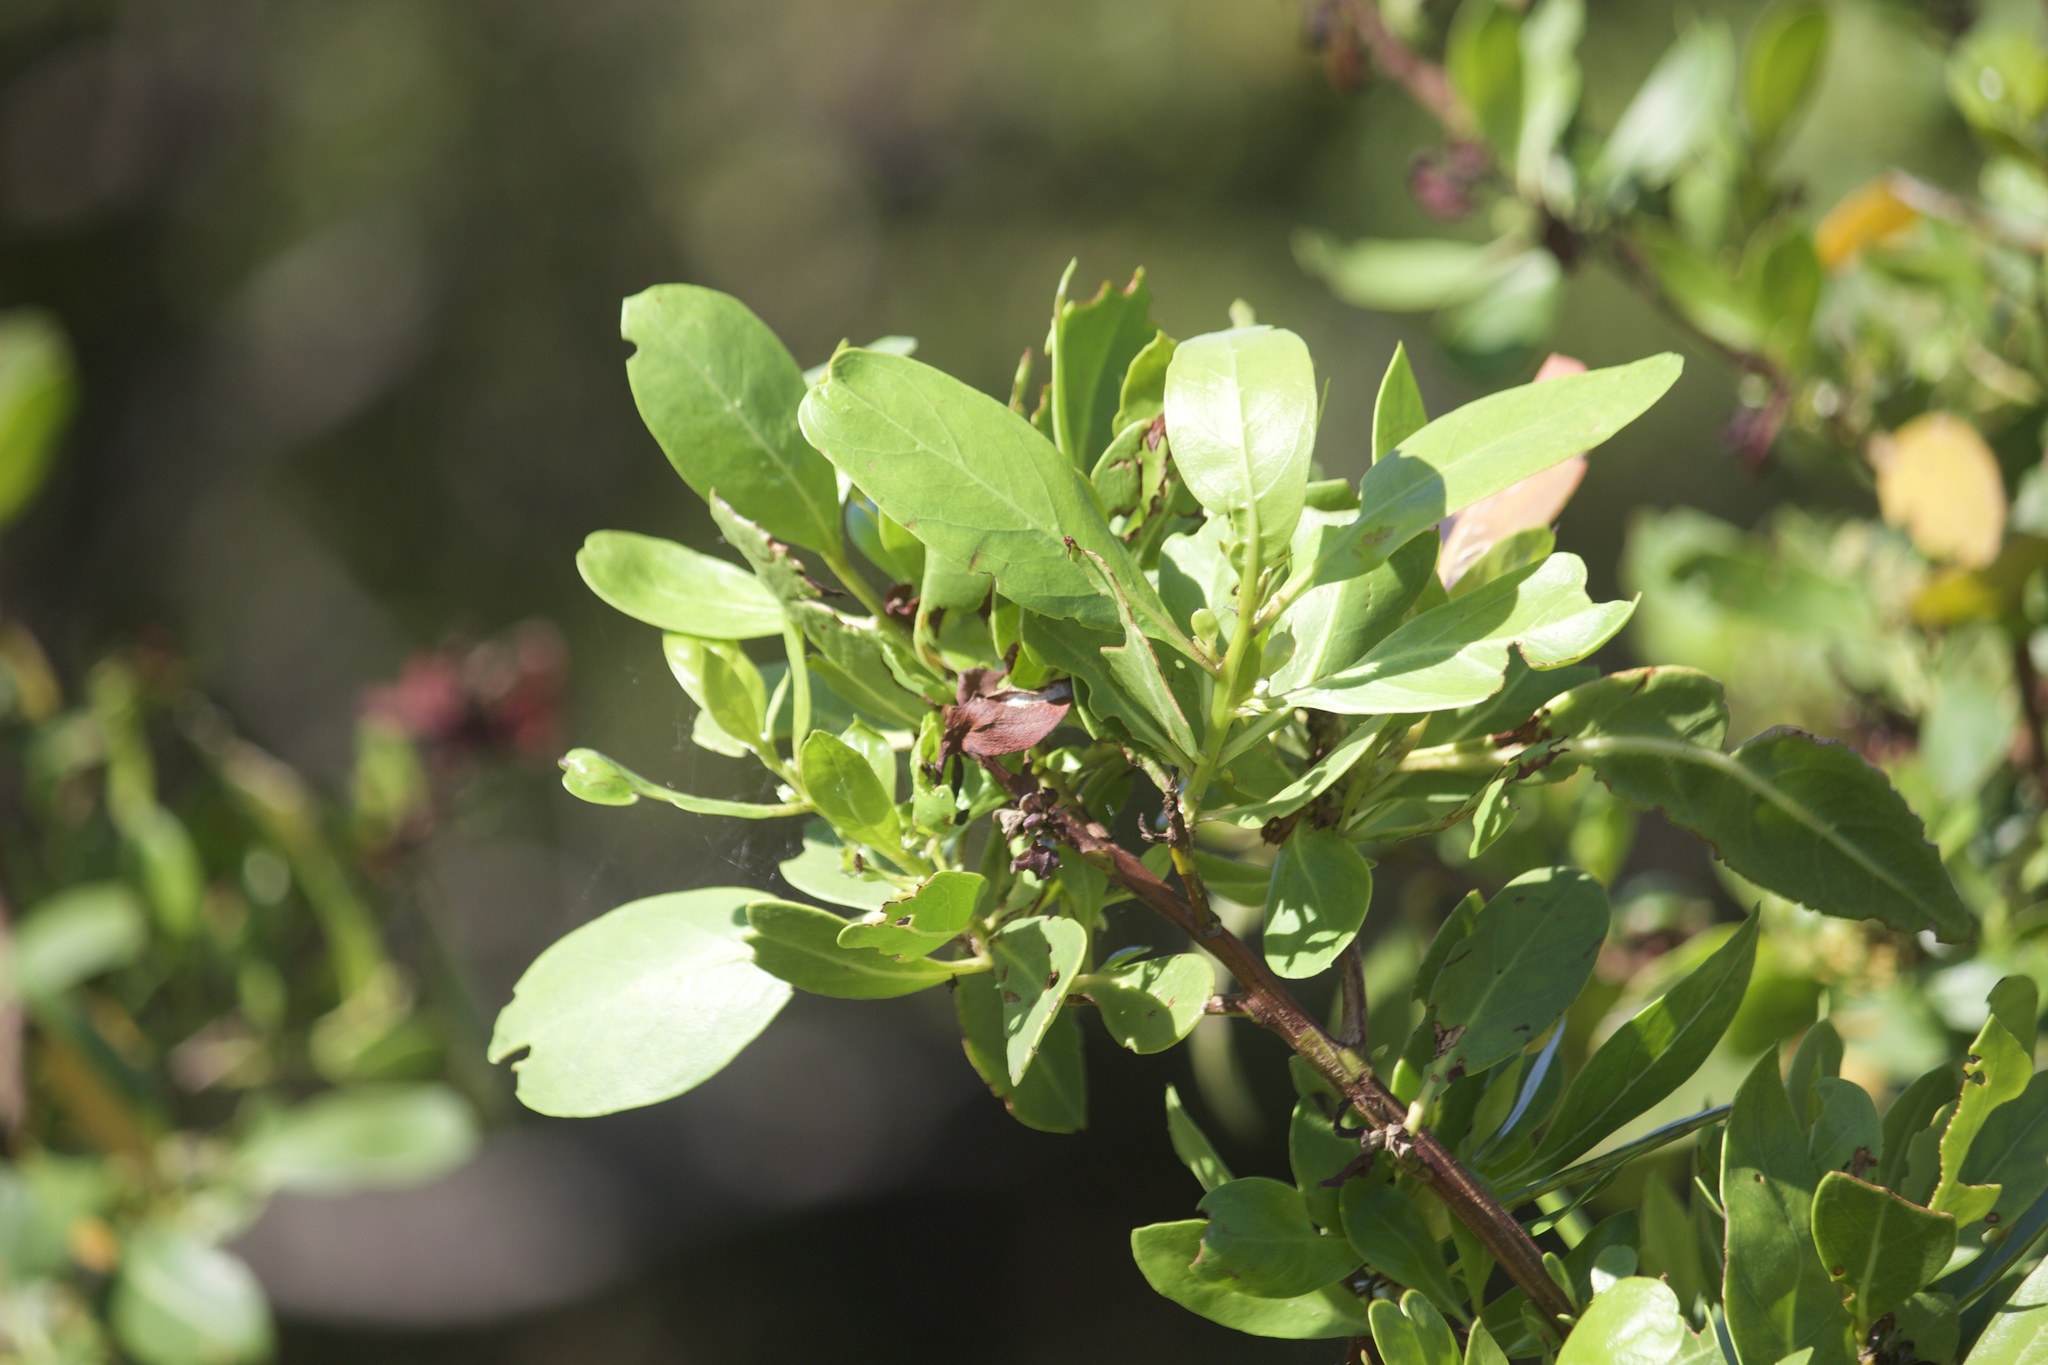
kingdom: Plantae
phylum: Tracheophyta
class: Magnoliopsida
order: Myrtales
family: Combretaceae
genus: Conocarpus
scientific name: Conocarpus erectus
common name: Button mangrove
